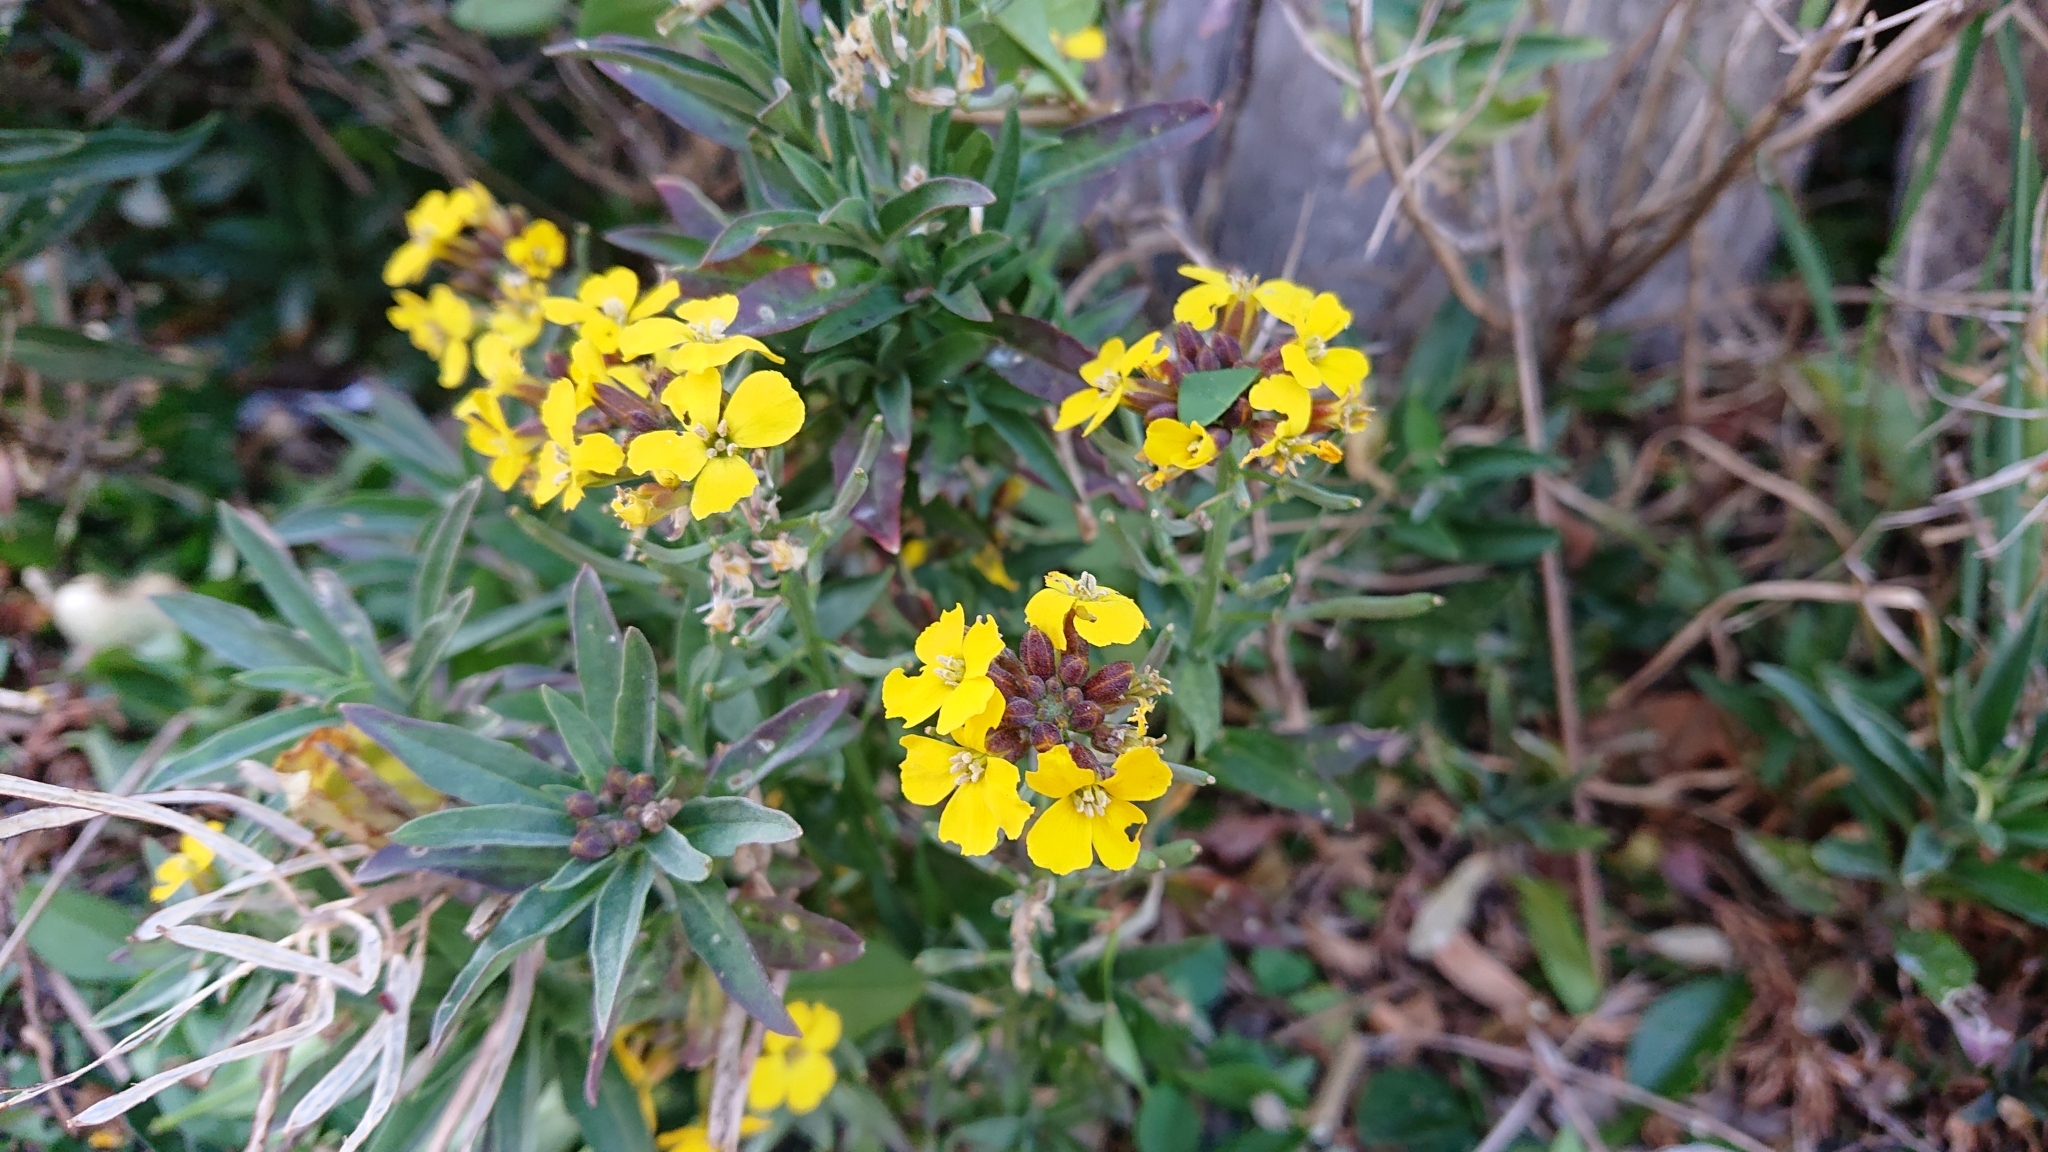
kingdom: Plantae
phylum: Tracheophyta
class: Magnoliopsida
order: Brassicales
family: Brassicaceae
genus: Erysimum
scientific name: Erysimum cheiri
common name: Wallflower
